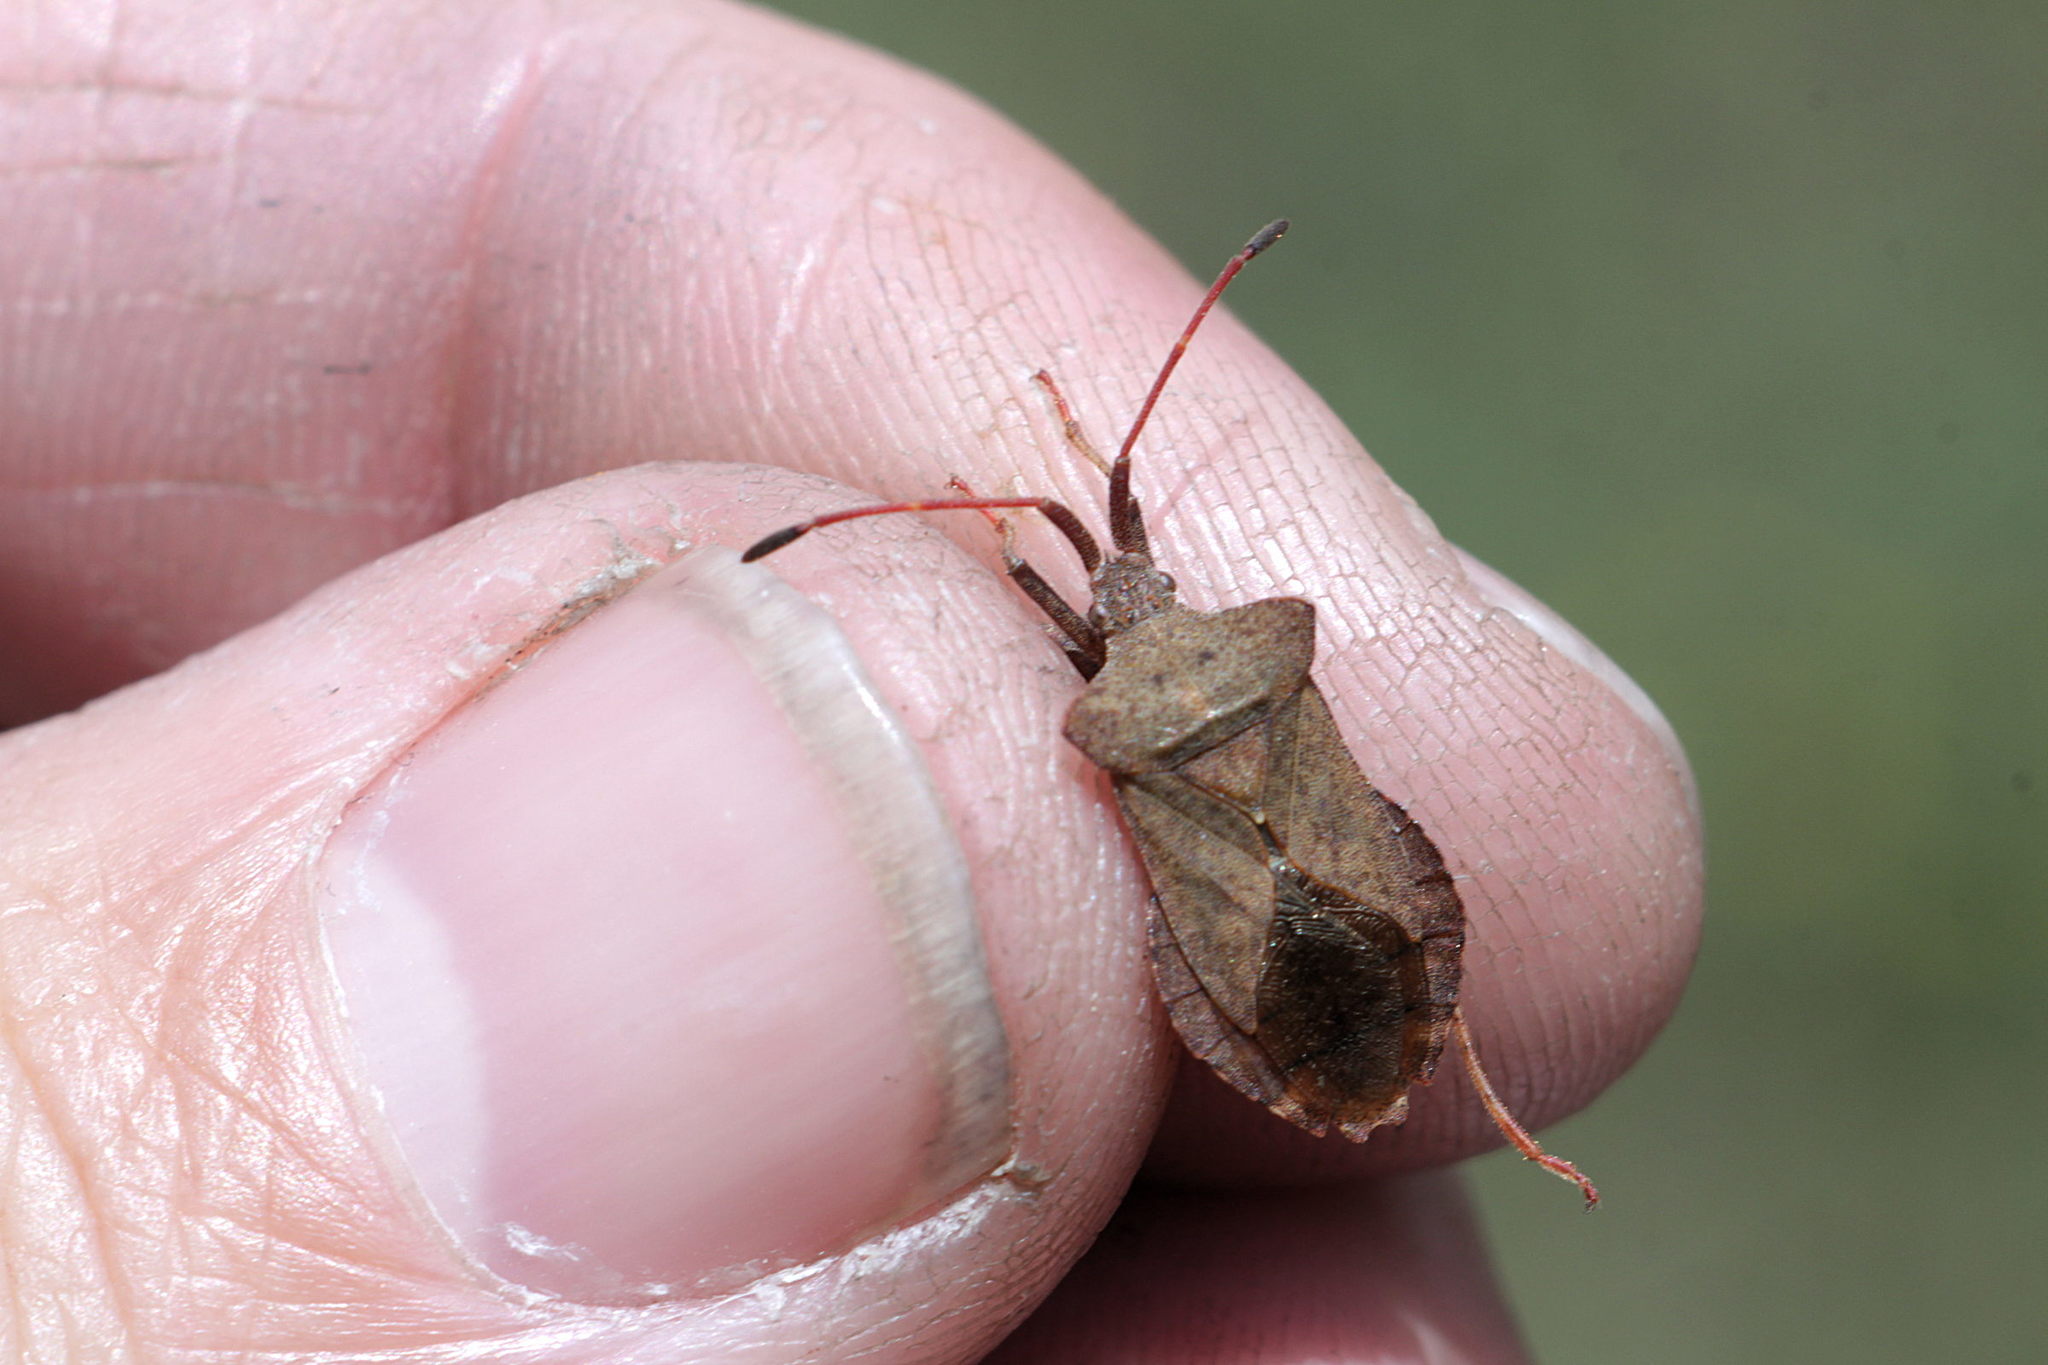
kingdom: Animalia
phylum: Arthropoda
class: Insecta
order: Hemiptera
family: Coreidae
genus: Coreus
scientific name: Coreus marginatus
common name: Dock bug
